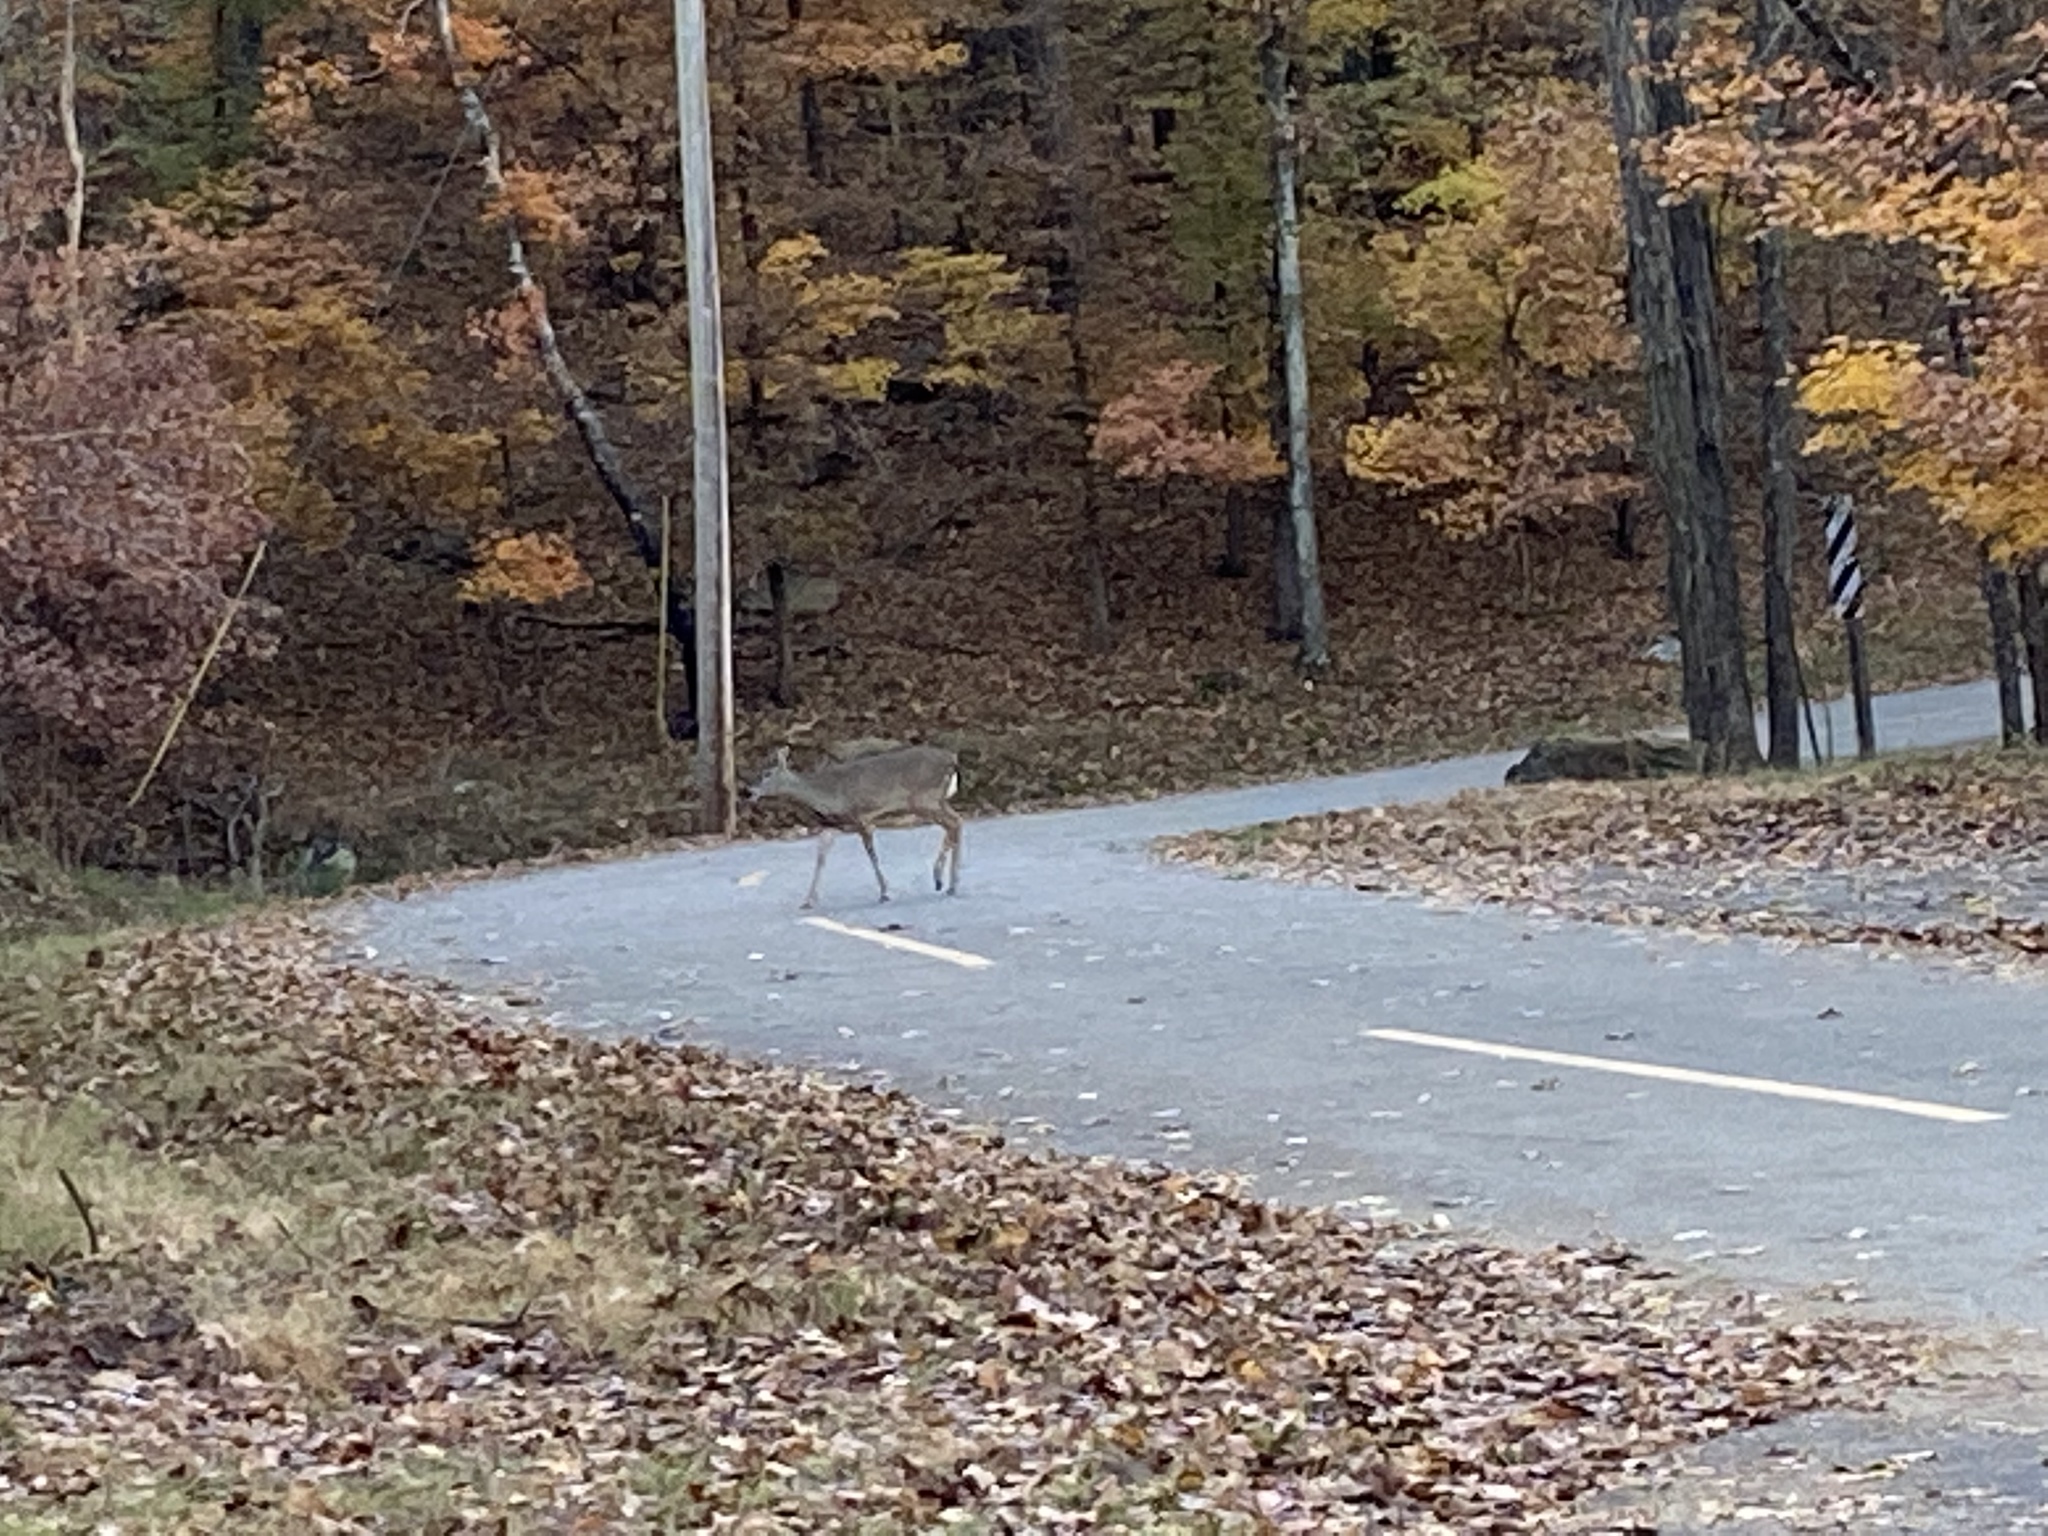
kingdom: Animalia
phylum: Chordata
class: Mammalia
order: Artiodactyla
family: Cervidae
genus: Odocoileus
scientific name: Odocoileus virginianus
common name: White-tailed deer
